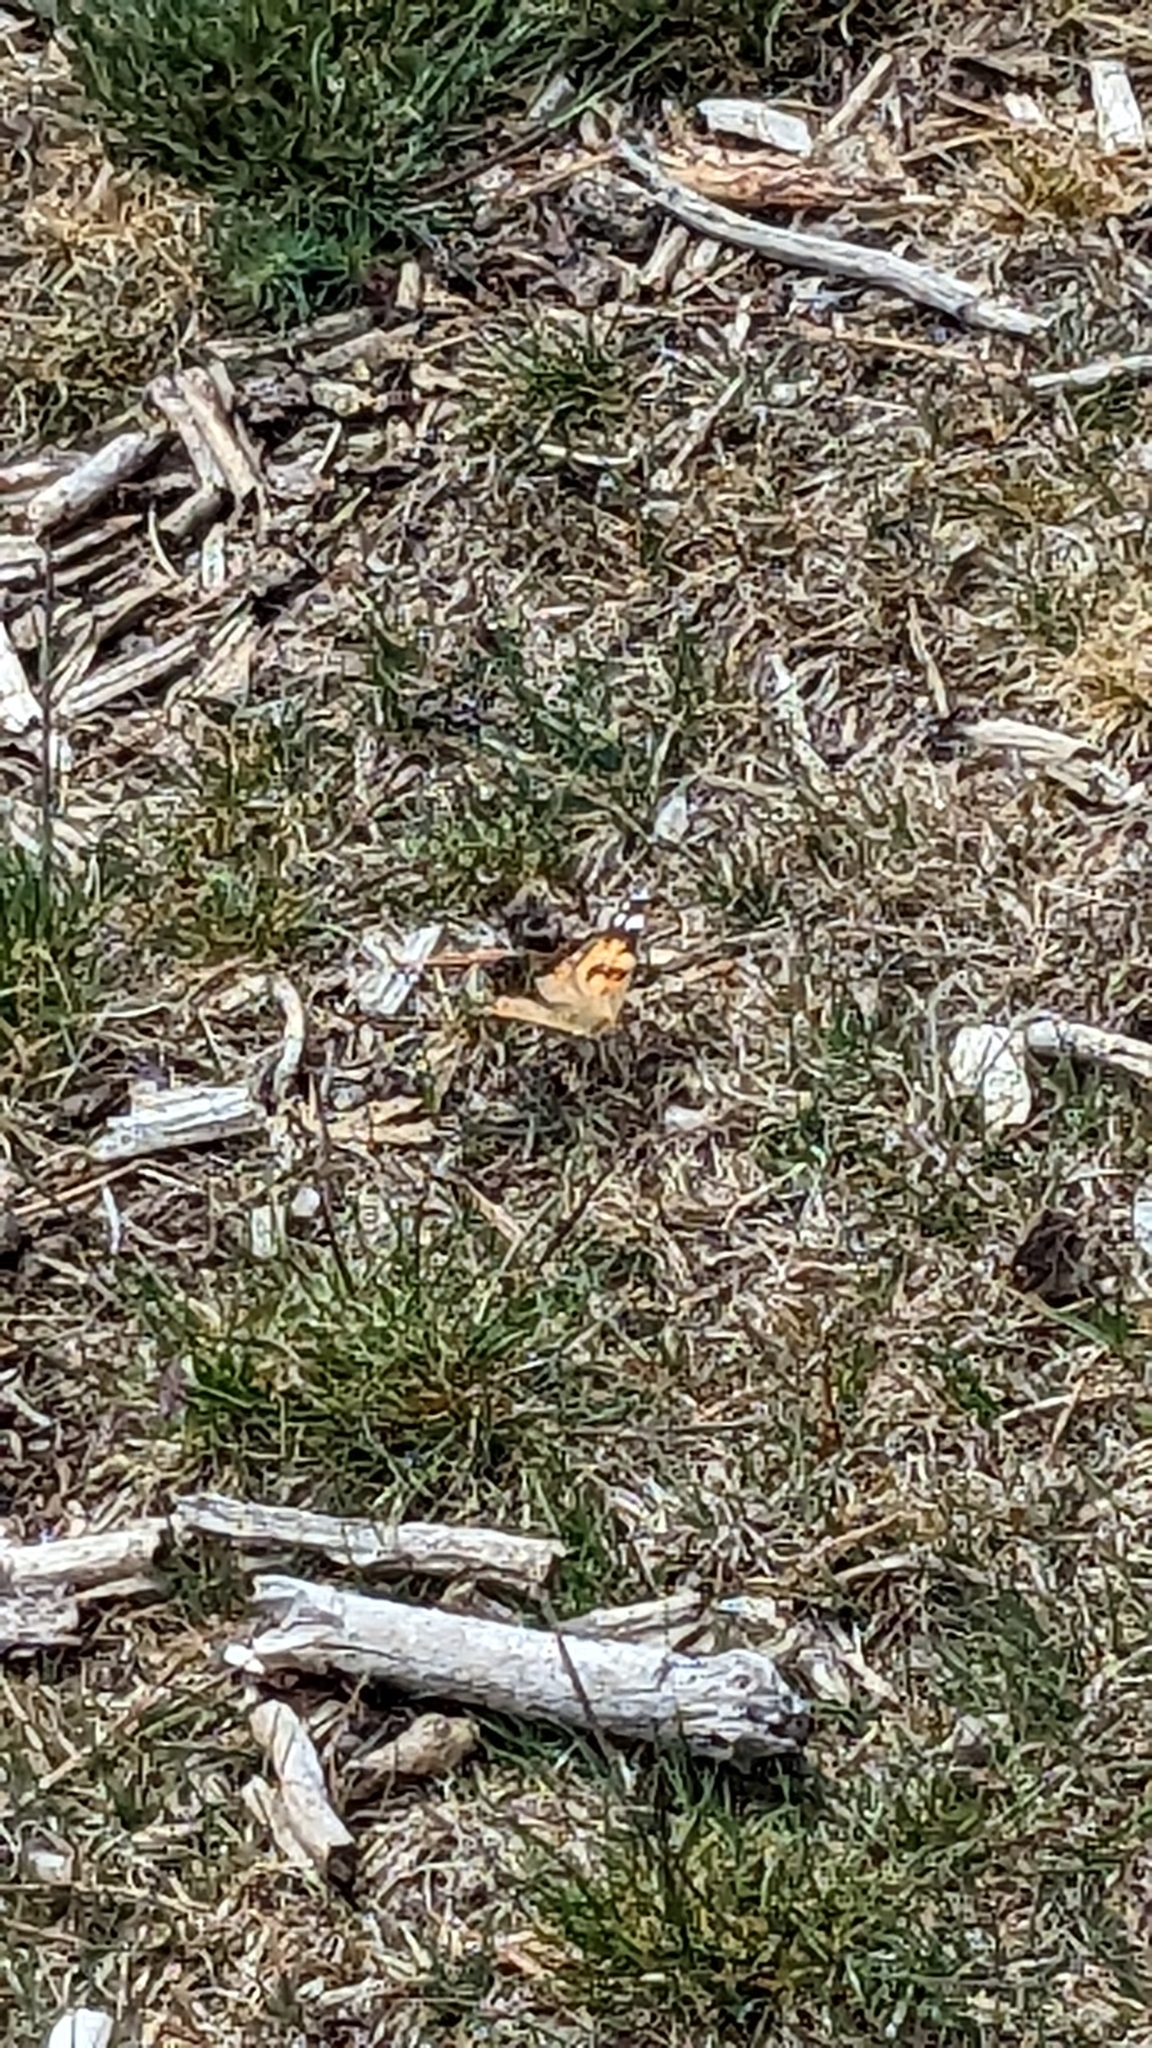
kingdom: Animalia
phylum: Arthropoda
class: Insecta
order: Lepidoptera
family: Nymphalidae
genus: Vanessa
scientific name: Vanessa cardui
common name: Painted lady
